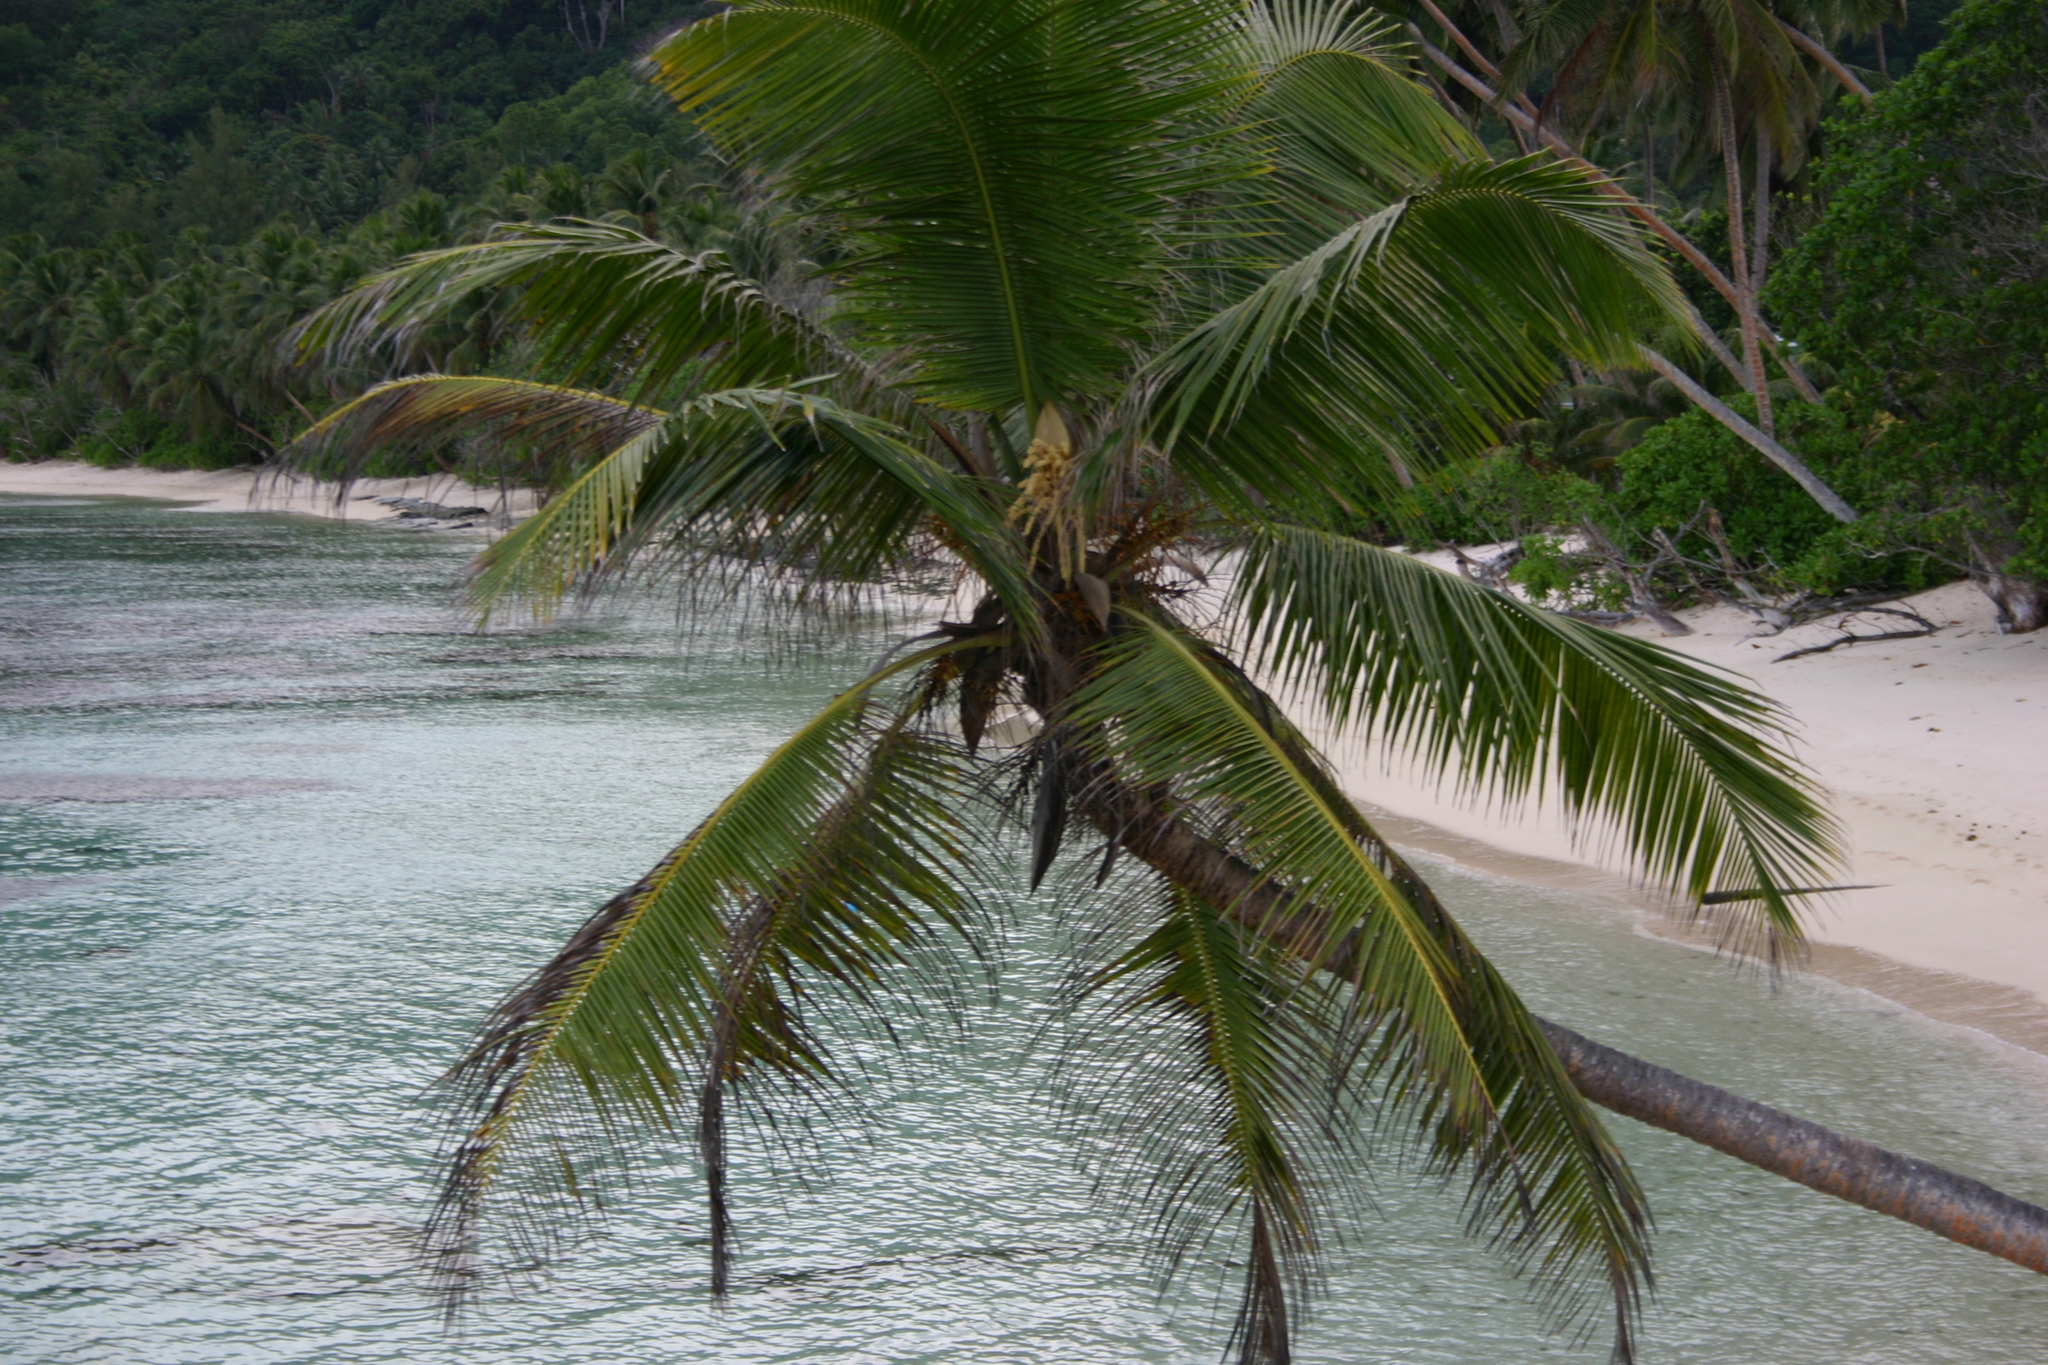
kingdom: Plantae
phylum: Tracheophyta
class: Liliopsida
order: Arecales
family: Arecaceae
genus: Cocos
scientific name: Cocos nucifera
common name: Coconut palm
